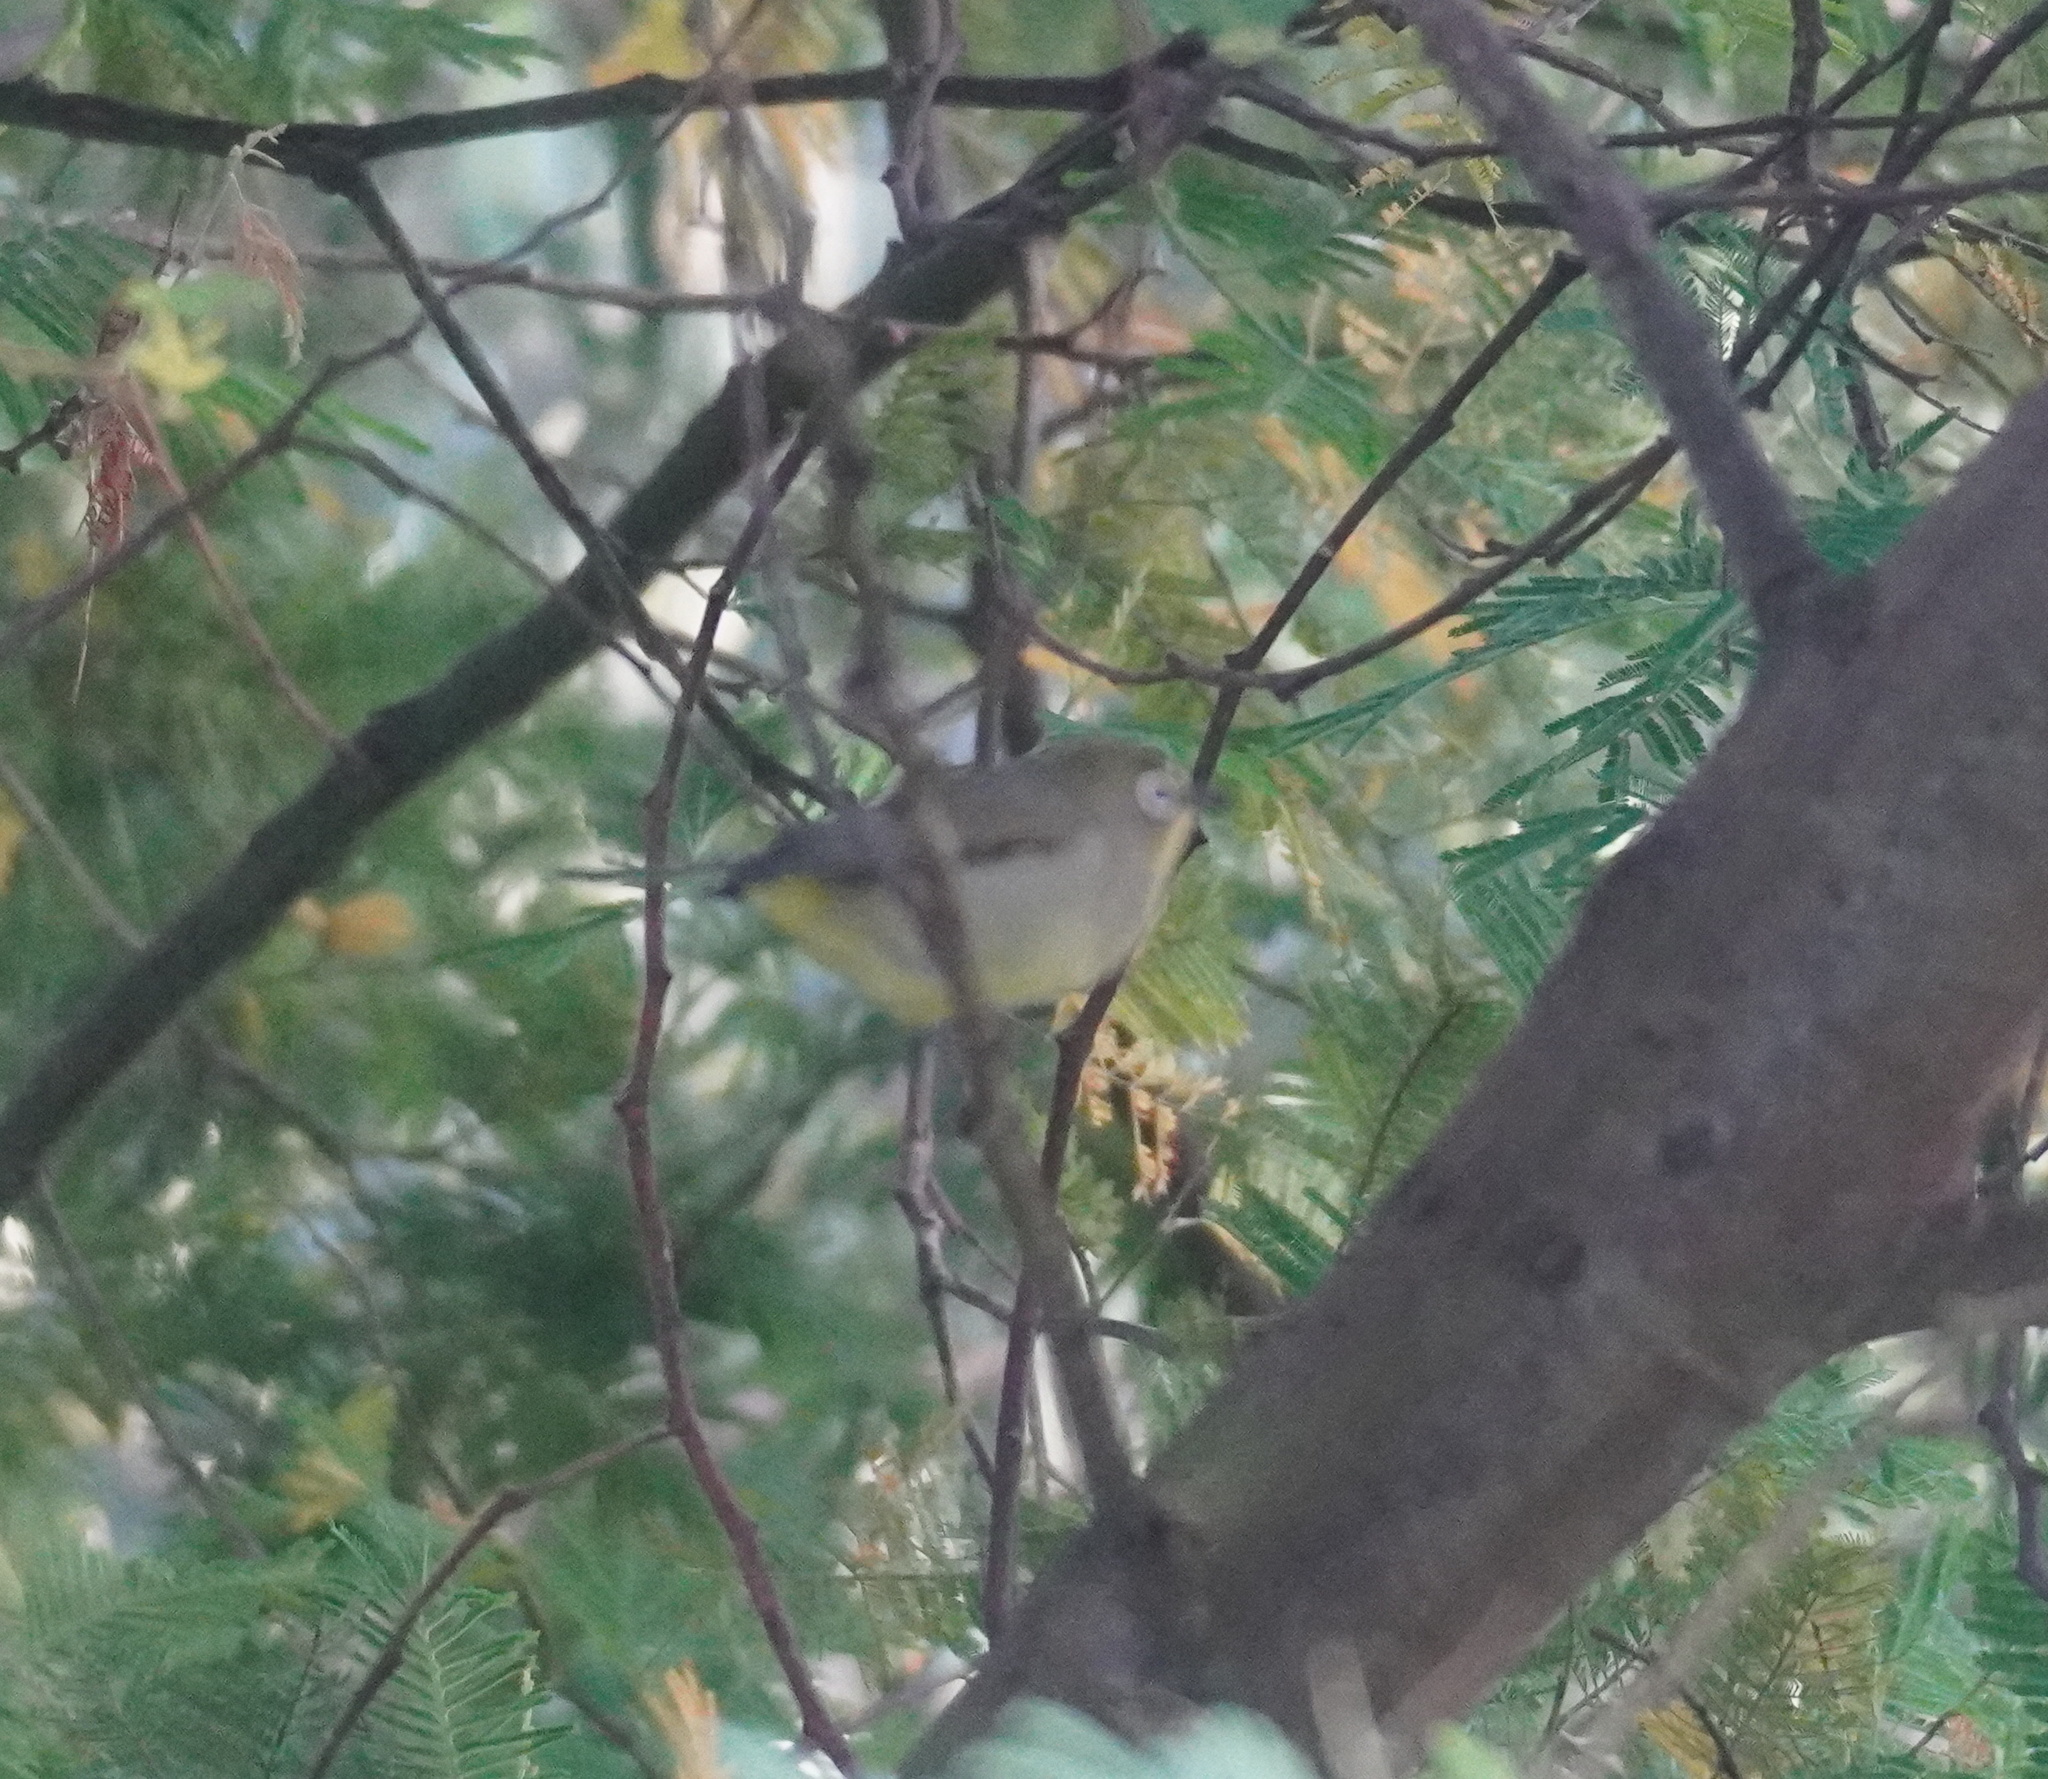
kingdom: Animalia
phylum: Chordata
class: Aves
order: Passeriformes
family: Zosteropidae
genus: Zosterops
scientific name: Zosterops virens
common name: Cape white-eye
